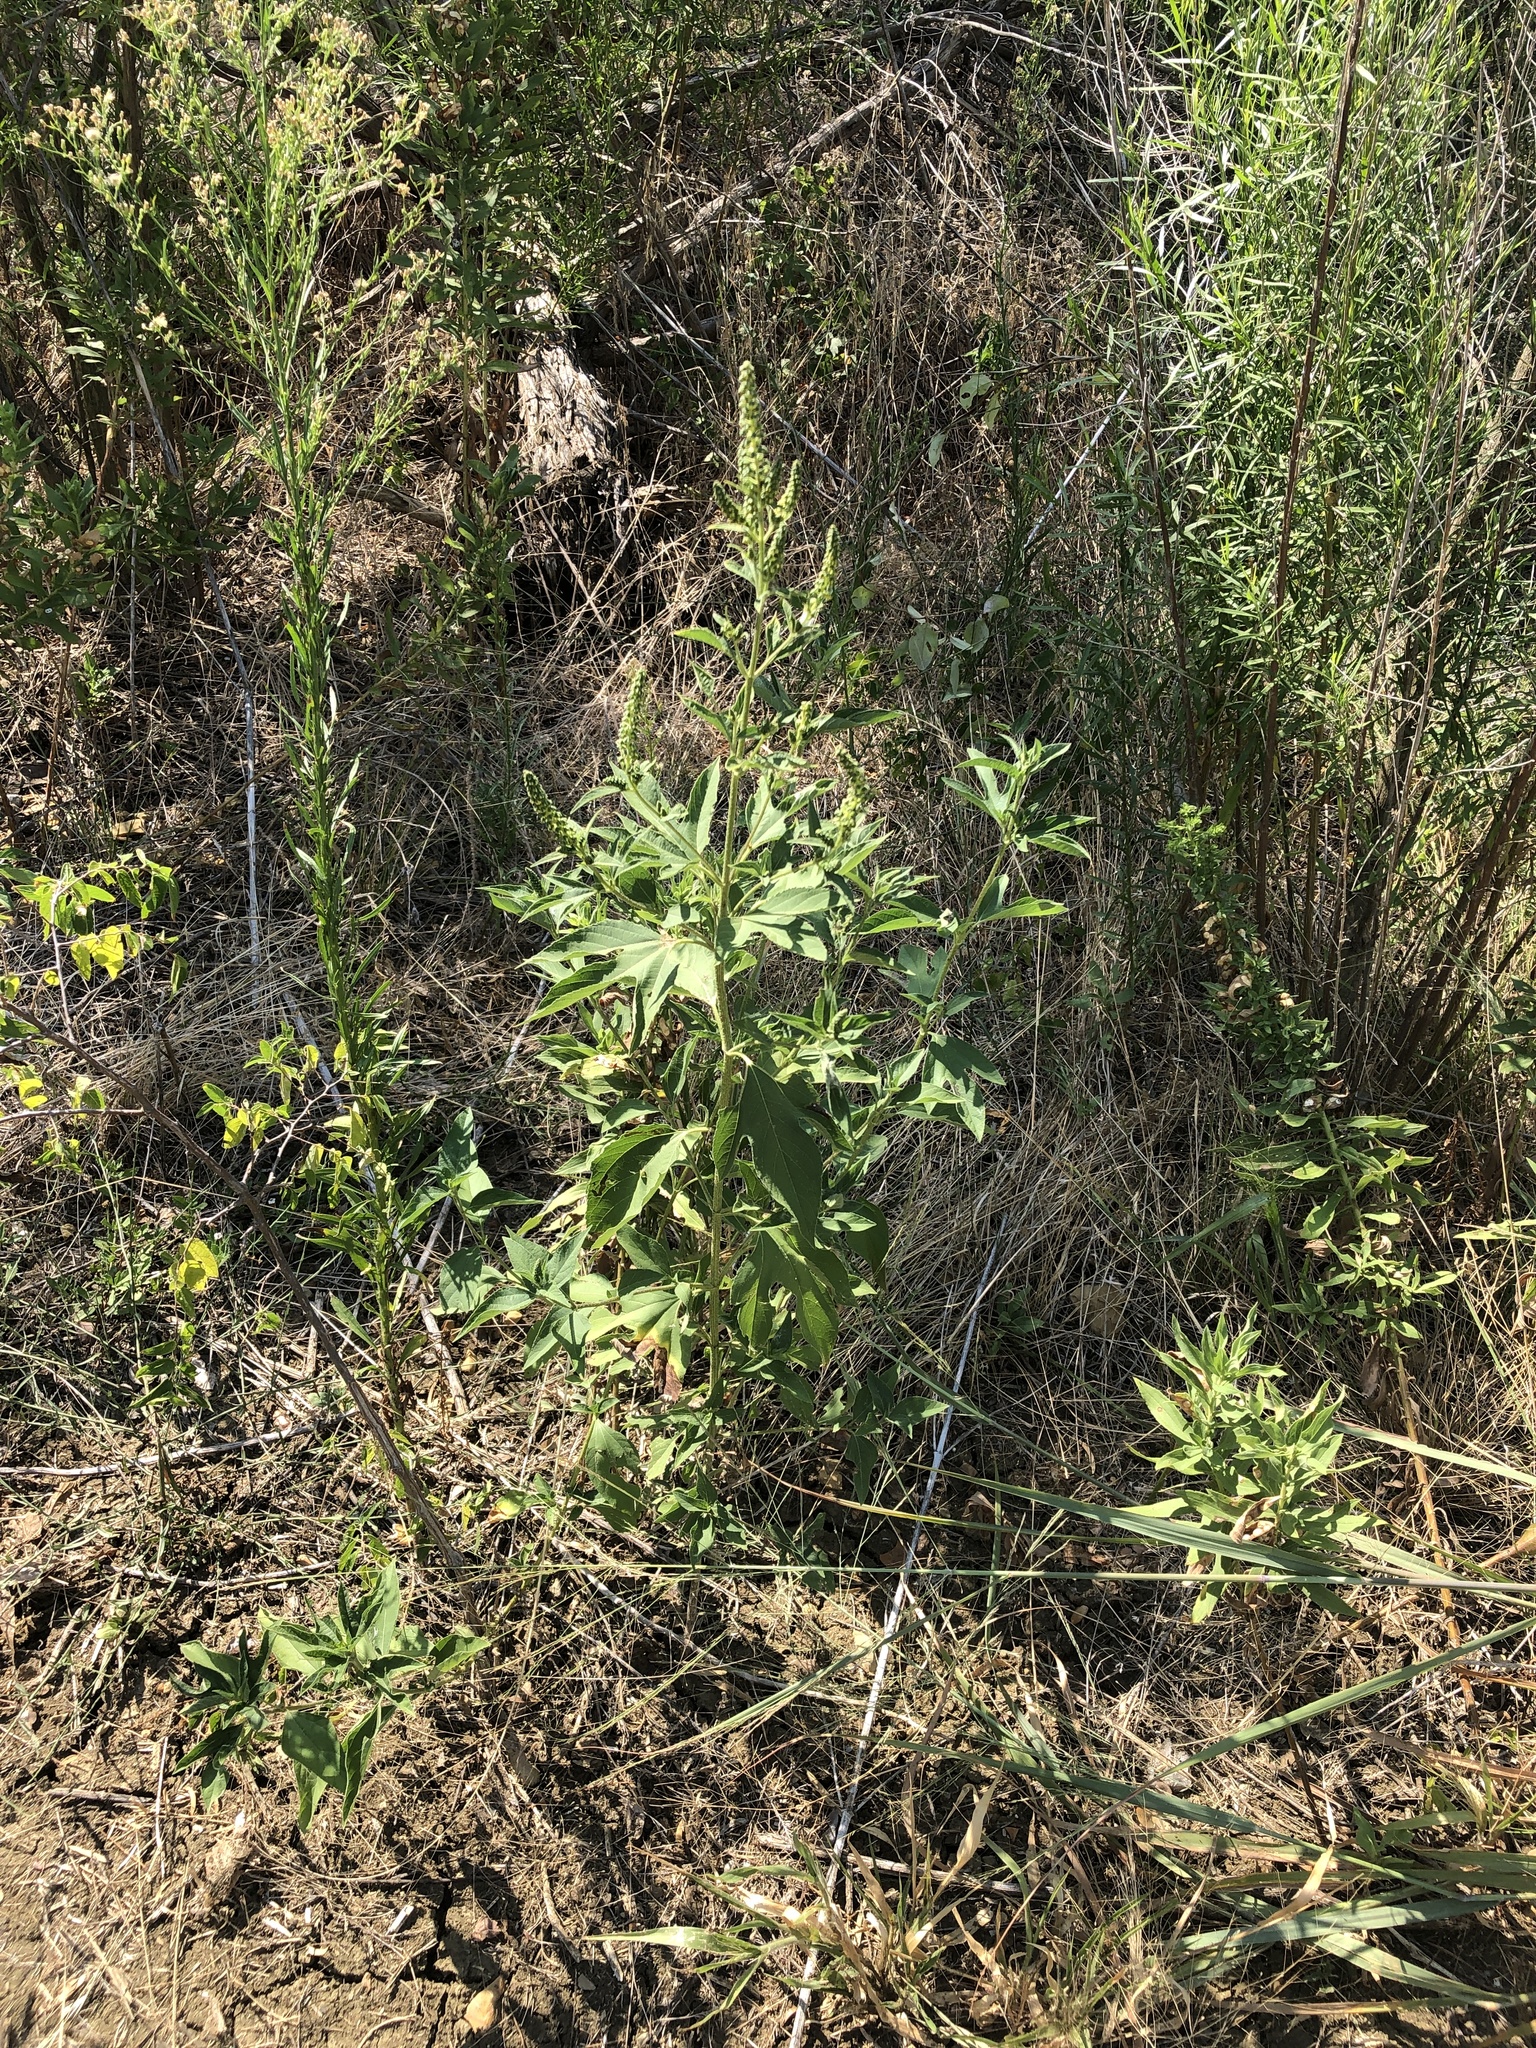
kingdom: Plantae
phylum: Tracheophyta
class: Magnoliopsida
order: Asterales
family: Asteraceae
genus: Ambrosia
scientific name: Ambrosia trifida
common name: Giant ragweed
